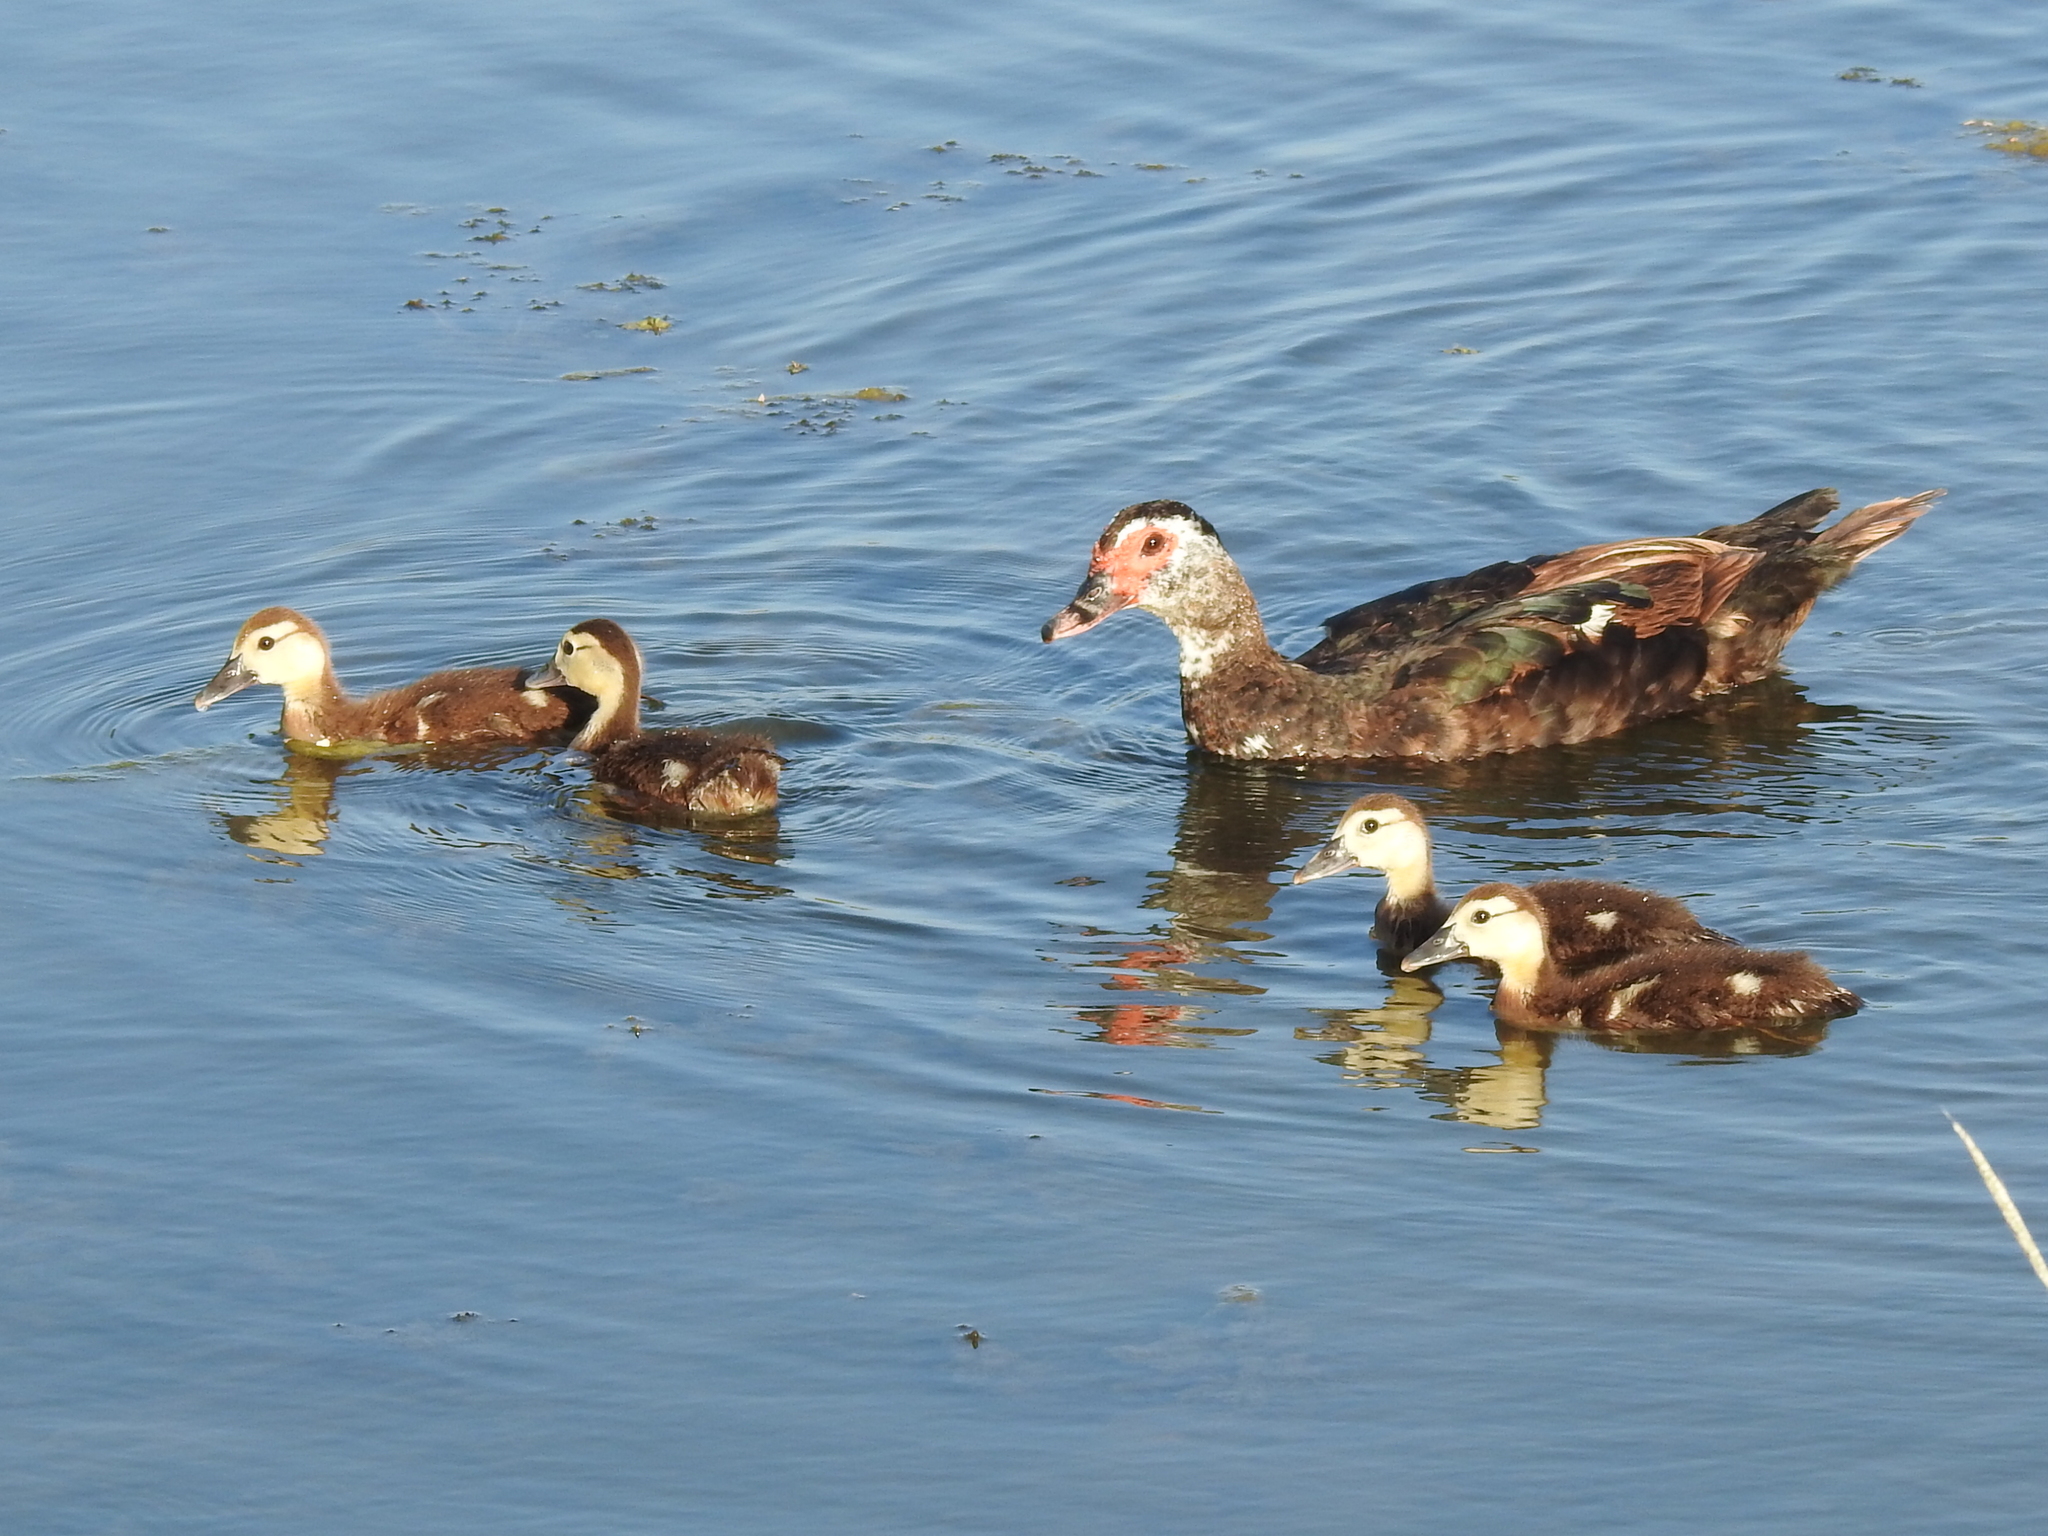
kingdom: Animalia
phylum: Chordata
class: Aves
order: Anseriformes
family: Anatidae
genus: Cairina
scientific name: Cairina moschata
